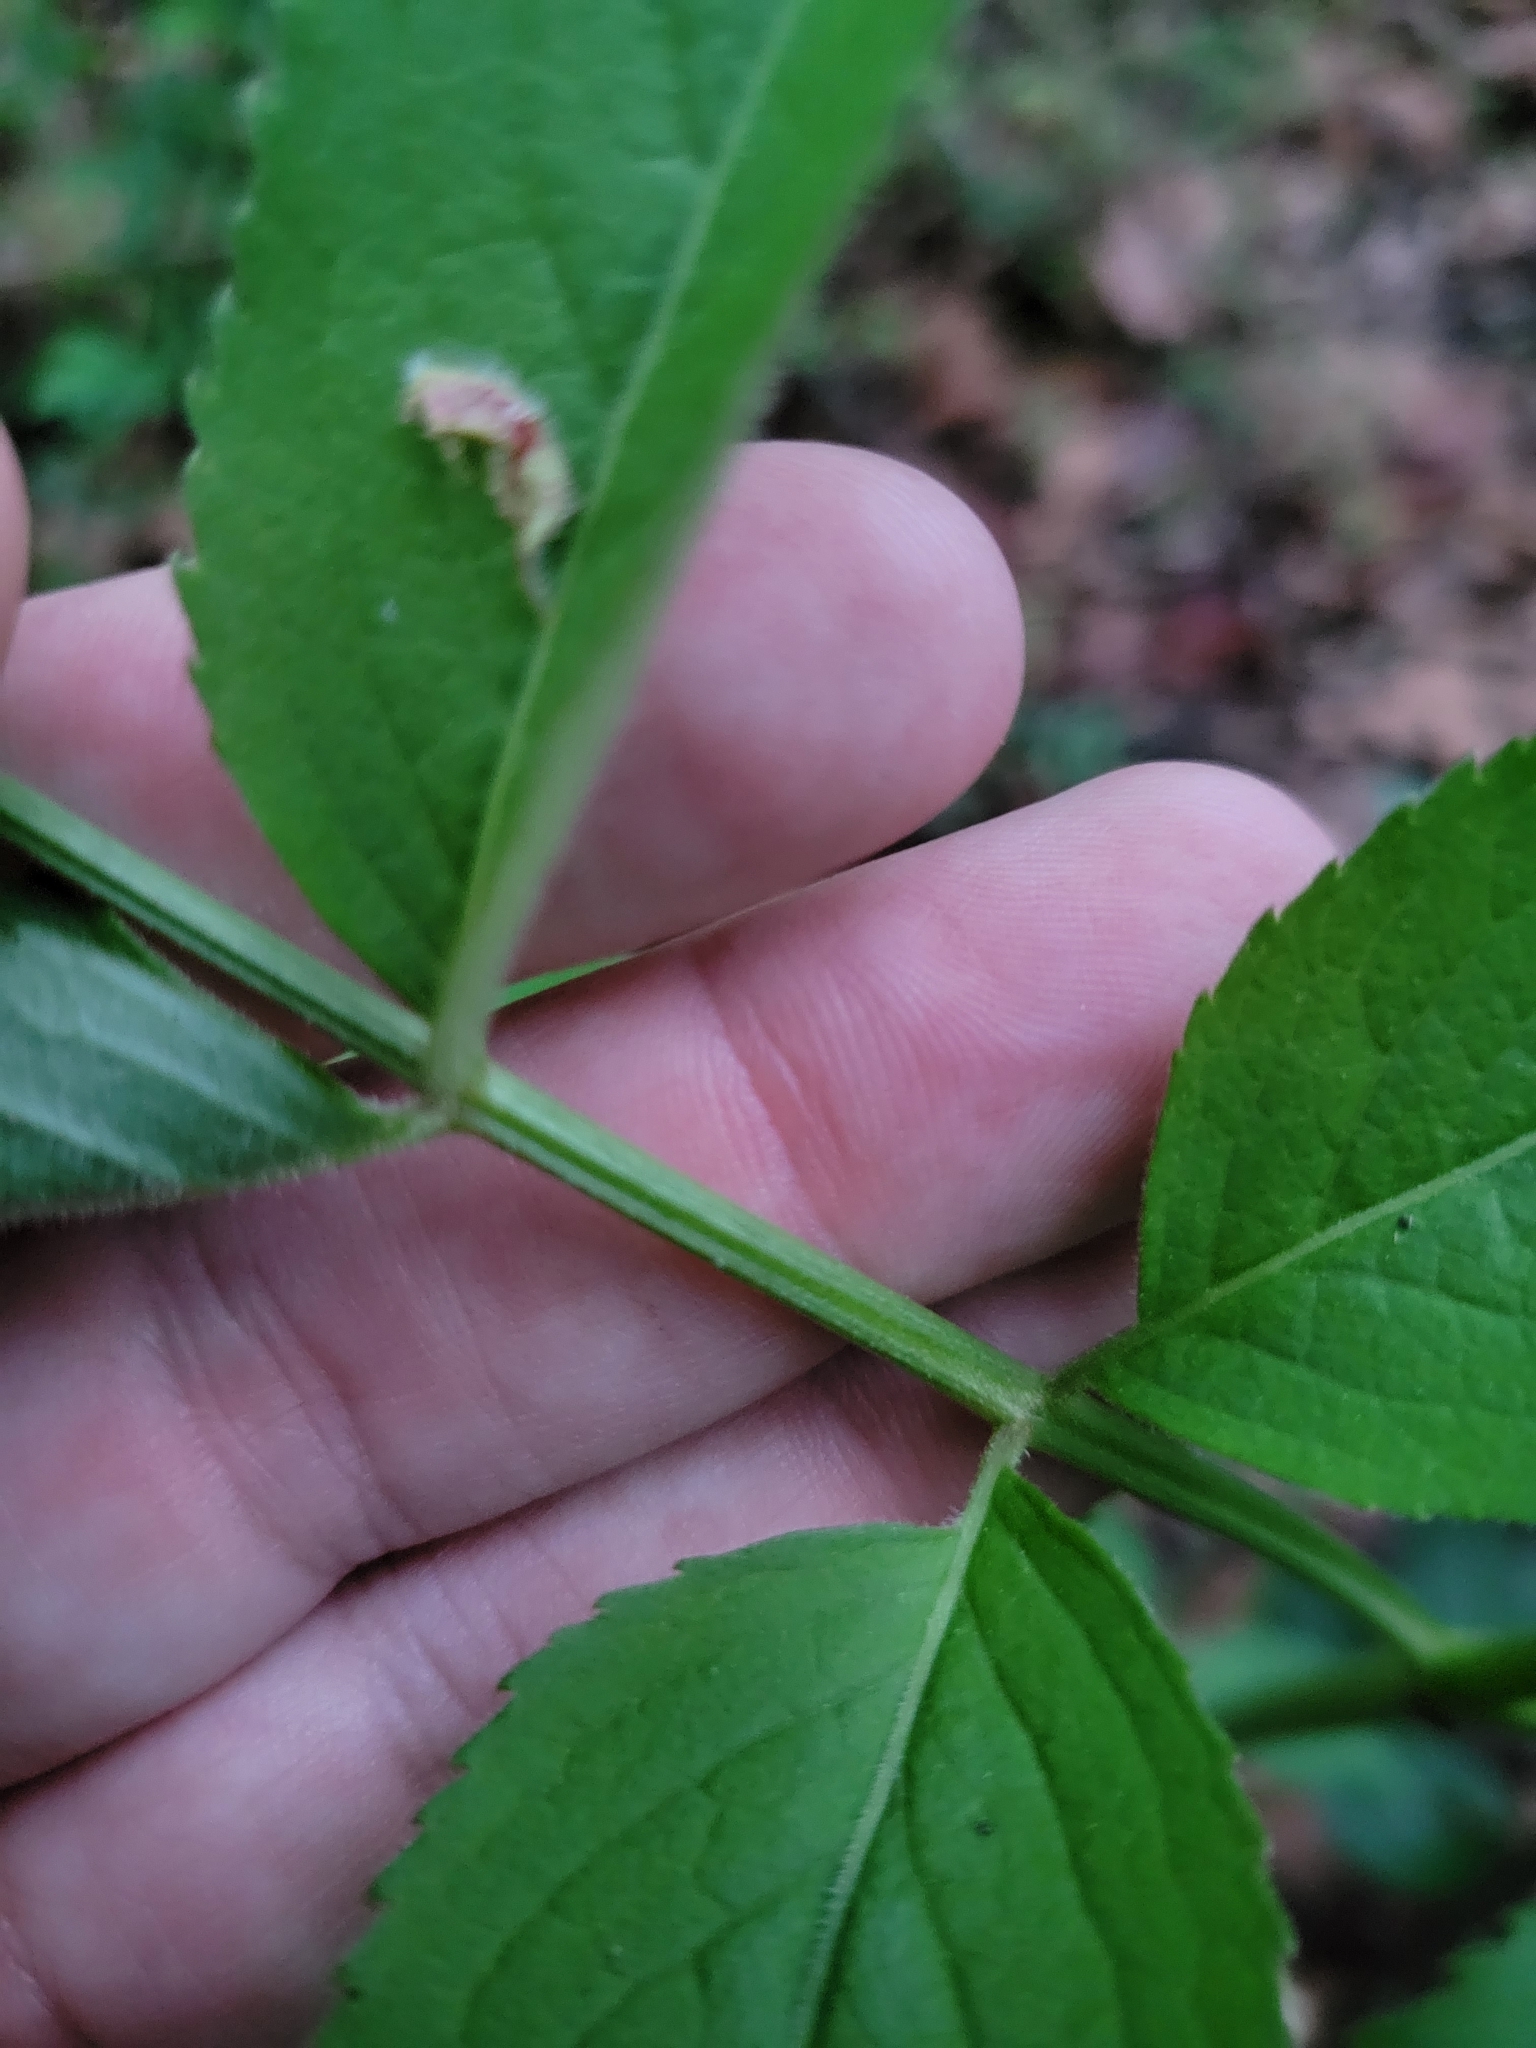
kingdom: Plantae
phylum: Tracheophyta
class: Magnoliopsida
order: Dipsacales
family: Viburnaceae
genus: Sambucus
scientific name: Sambucus canadensis
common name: American elder
